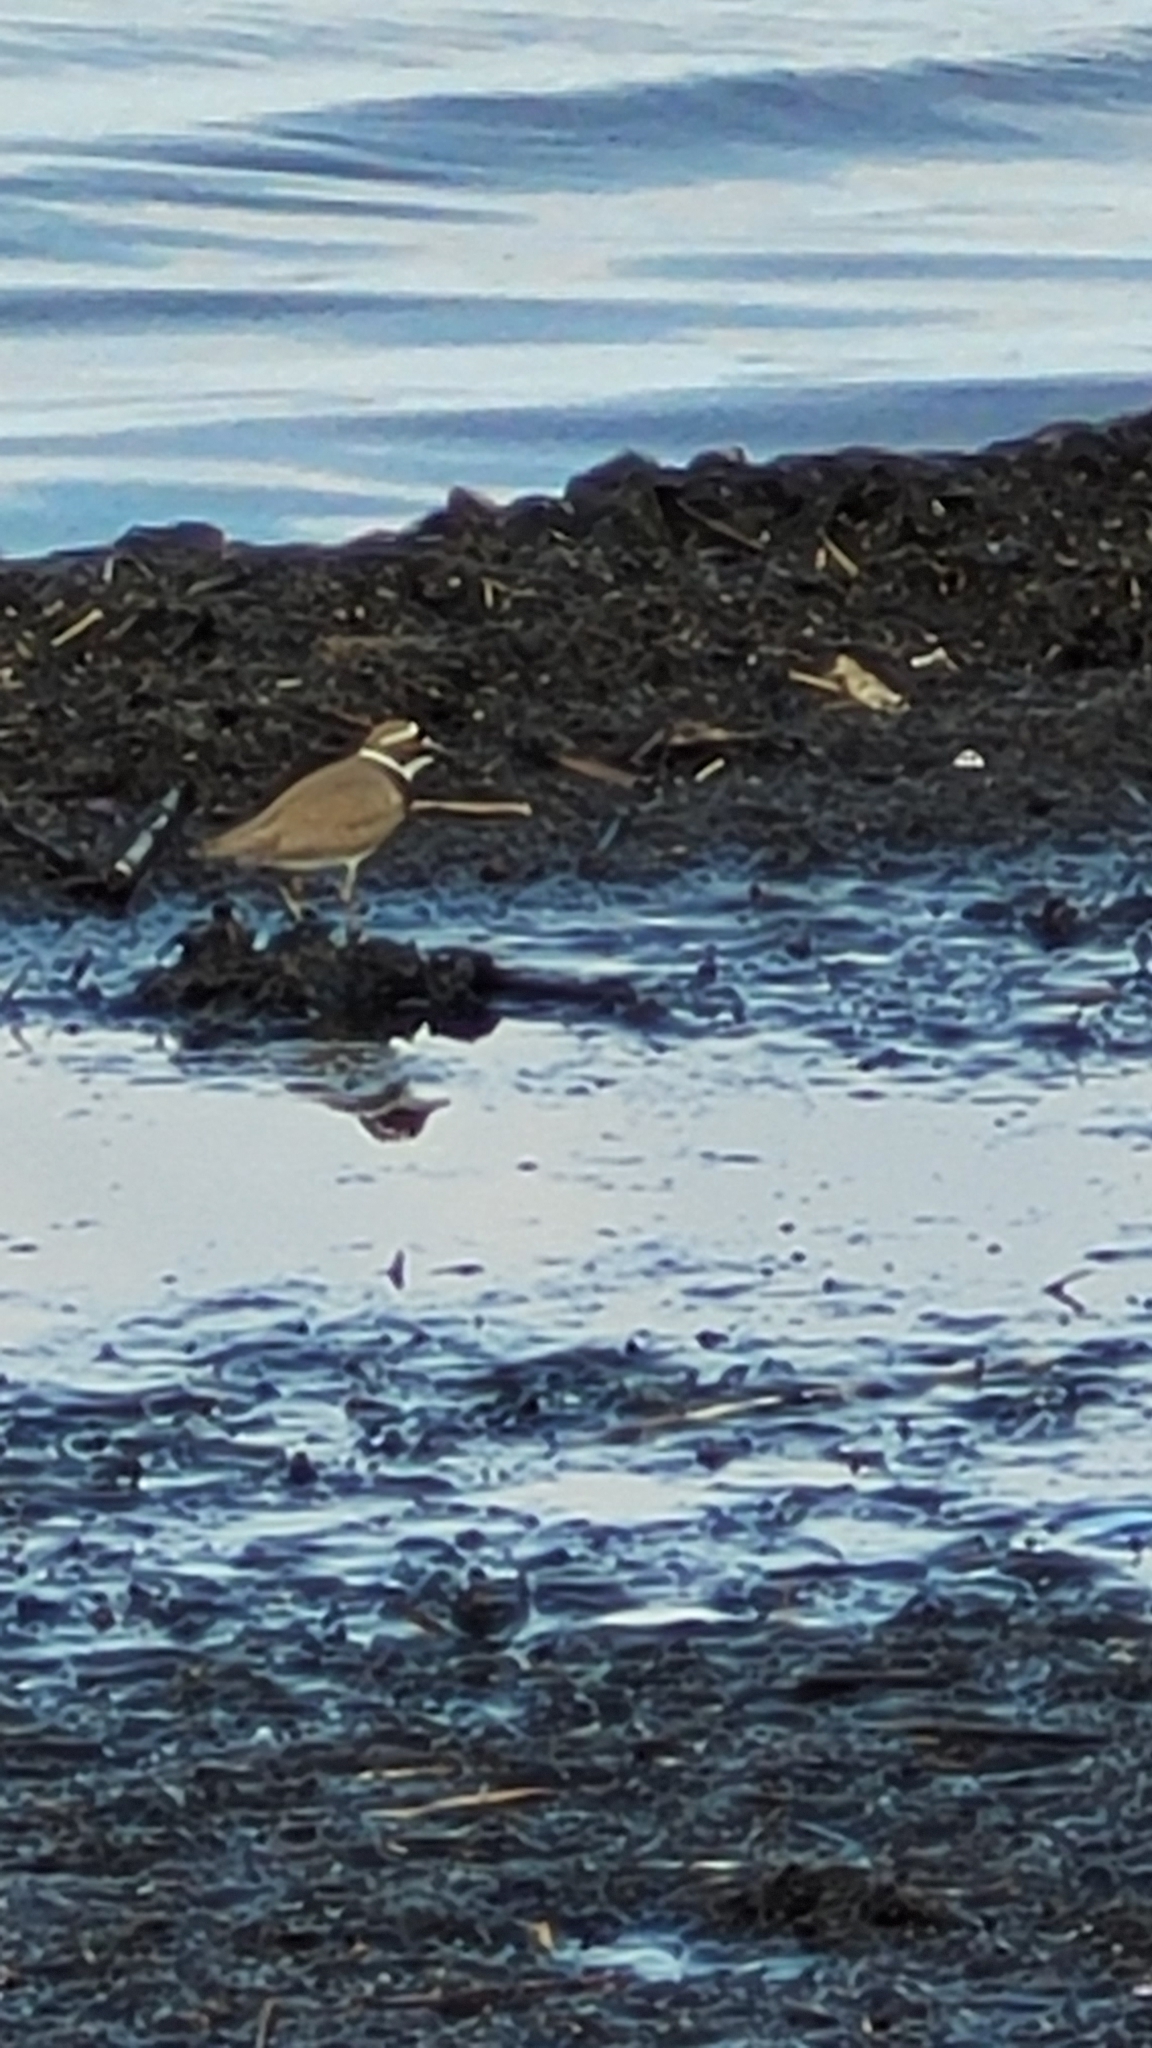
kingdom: Animalia
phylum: Chordata
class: Aves
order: Charadriiformes
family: Charadriidae
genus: Charadrius
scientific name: Charadrius dubius
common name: Little ringed plover
